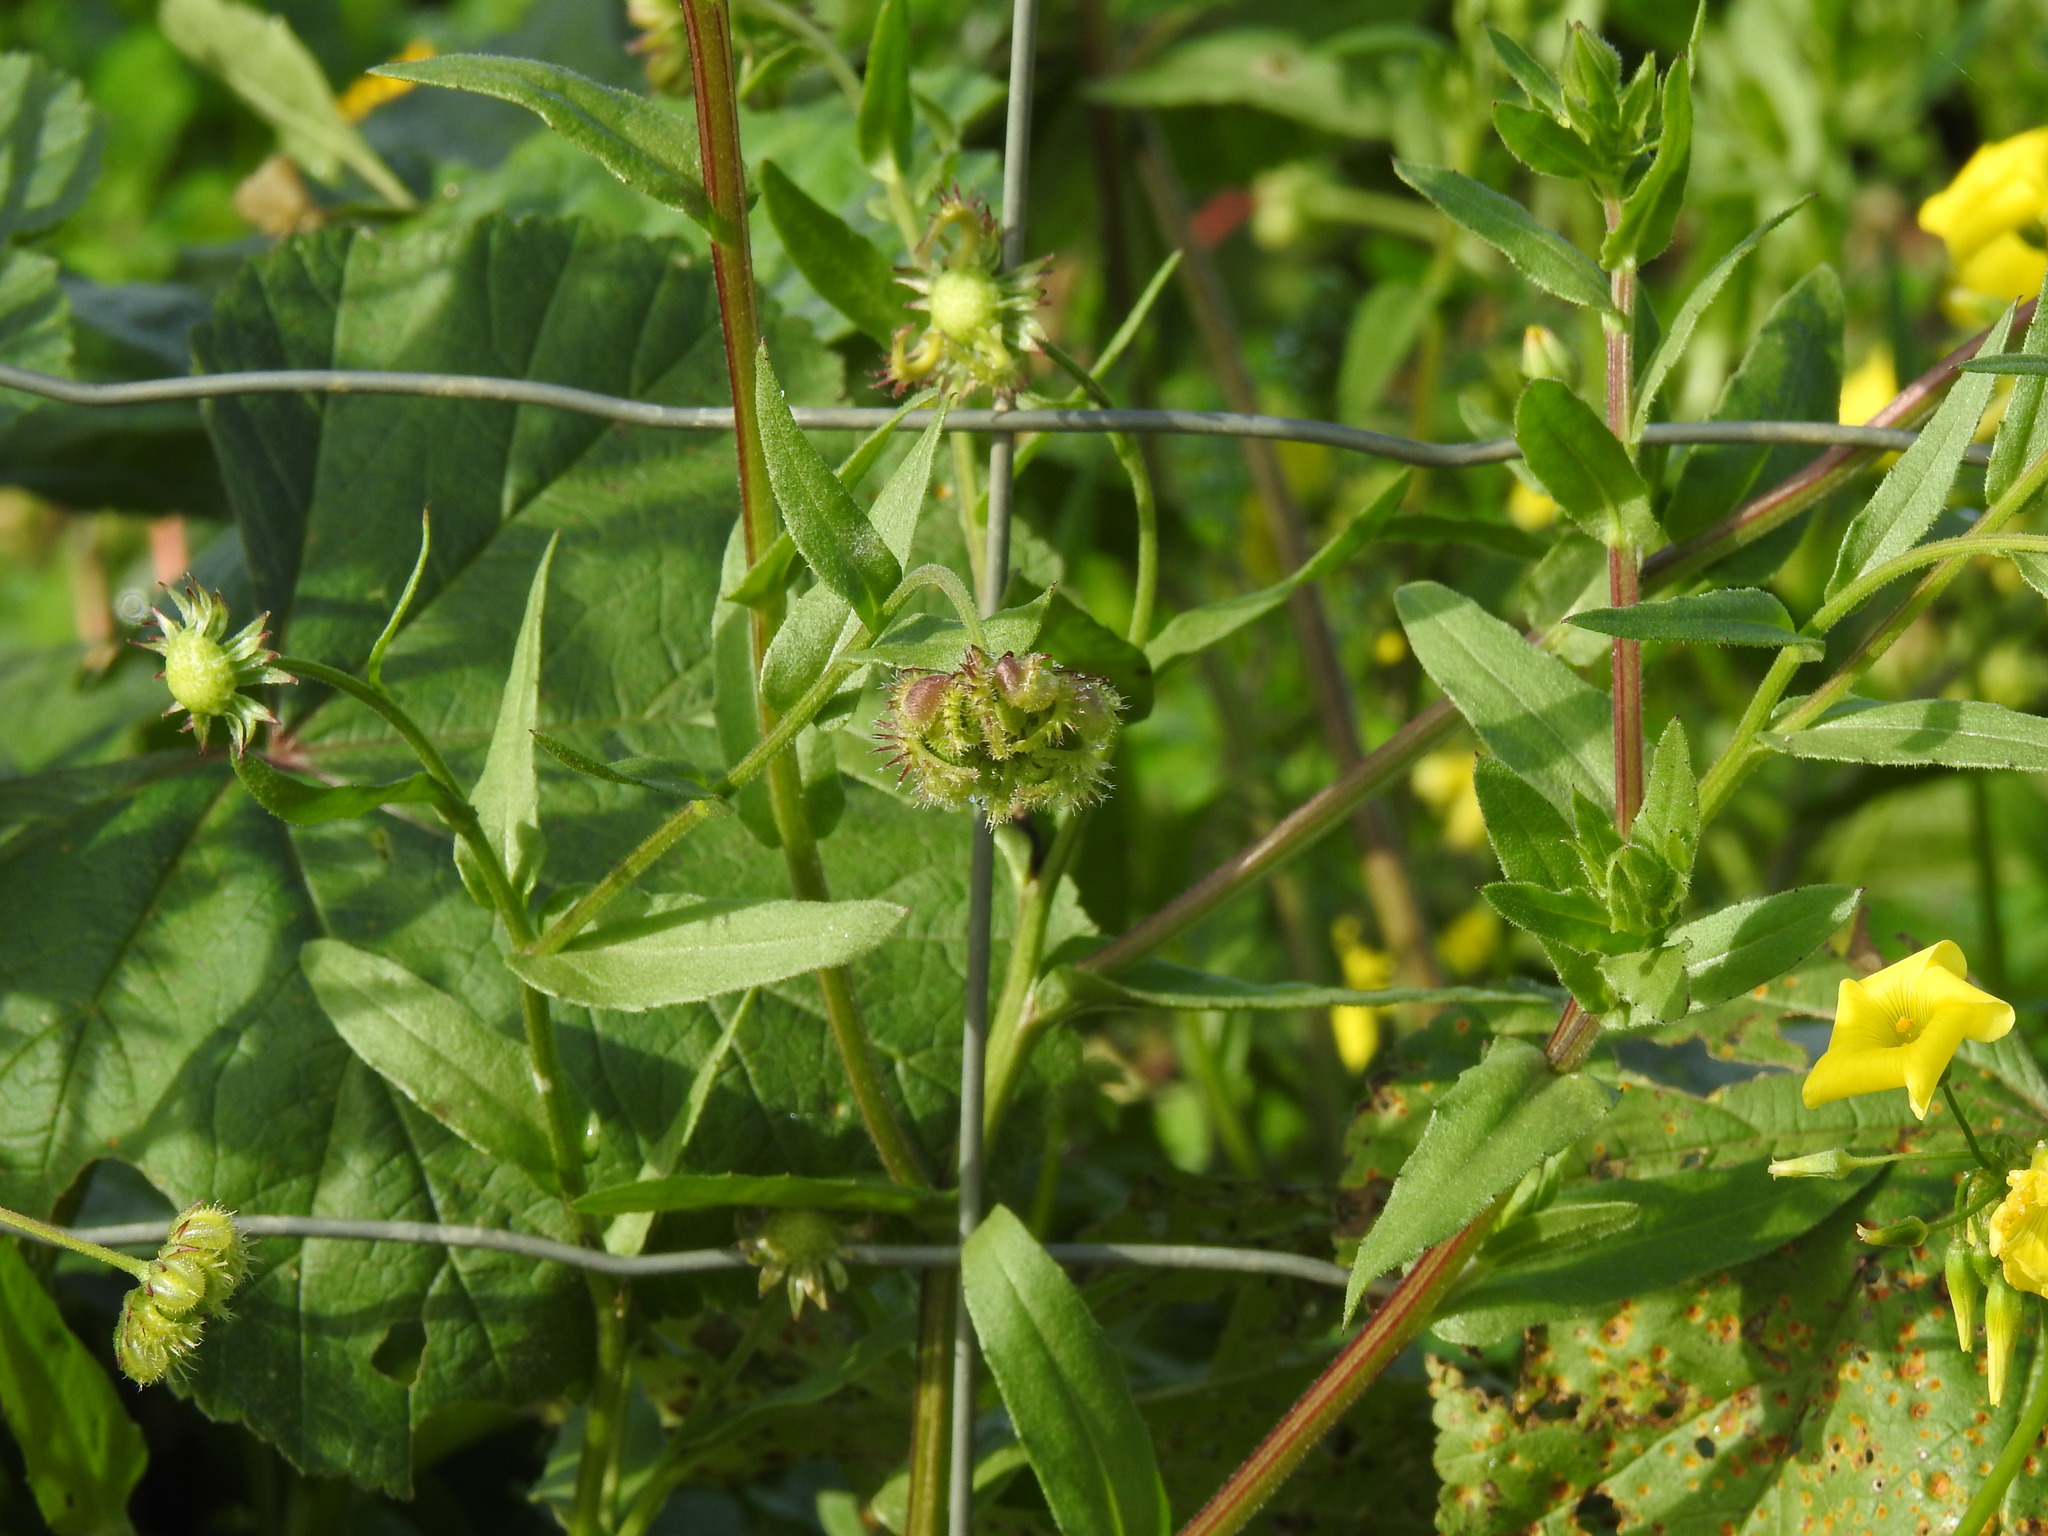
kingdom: Plantae
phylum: Tracheophyta
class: Magnoliopsida
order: Asterales
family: Asteraceae
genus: Calendula
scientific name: Calendula arvensis
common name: Field marigold
